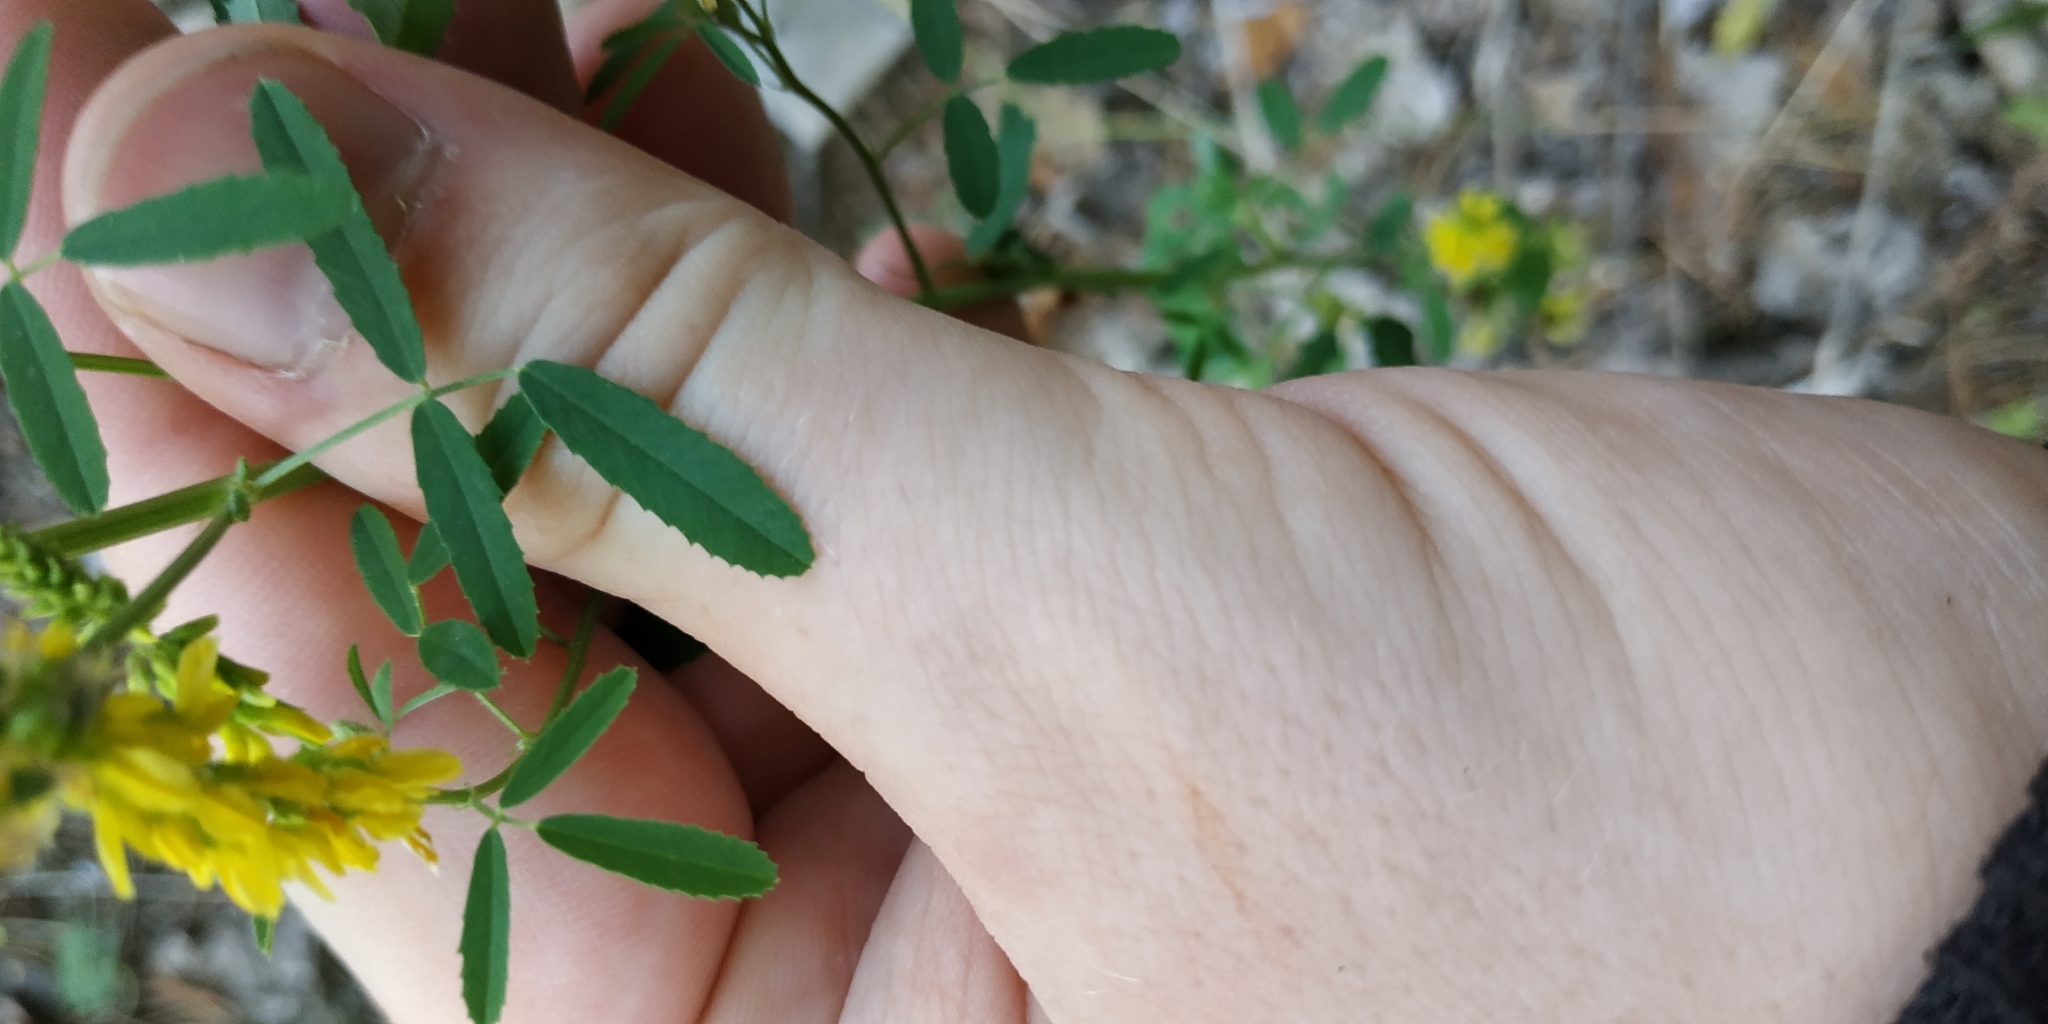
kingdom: Plantae
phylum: Tracheophyta
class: Magnoliopsida
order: Fabales
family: Fabaceae
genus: Melilotus
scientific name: Melilotus officinalis
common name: Sweetclover
